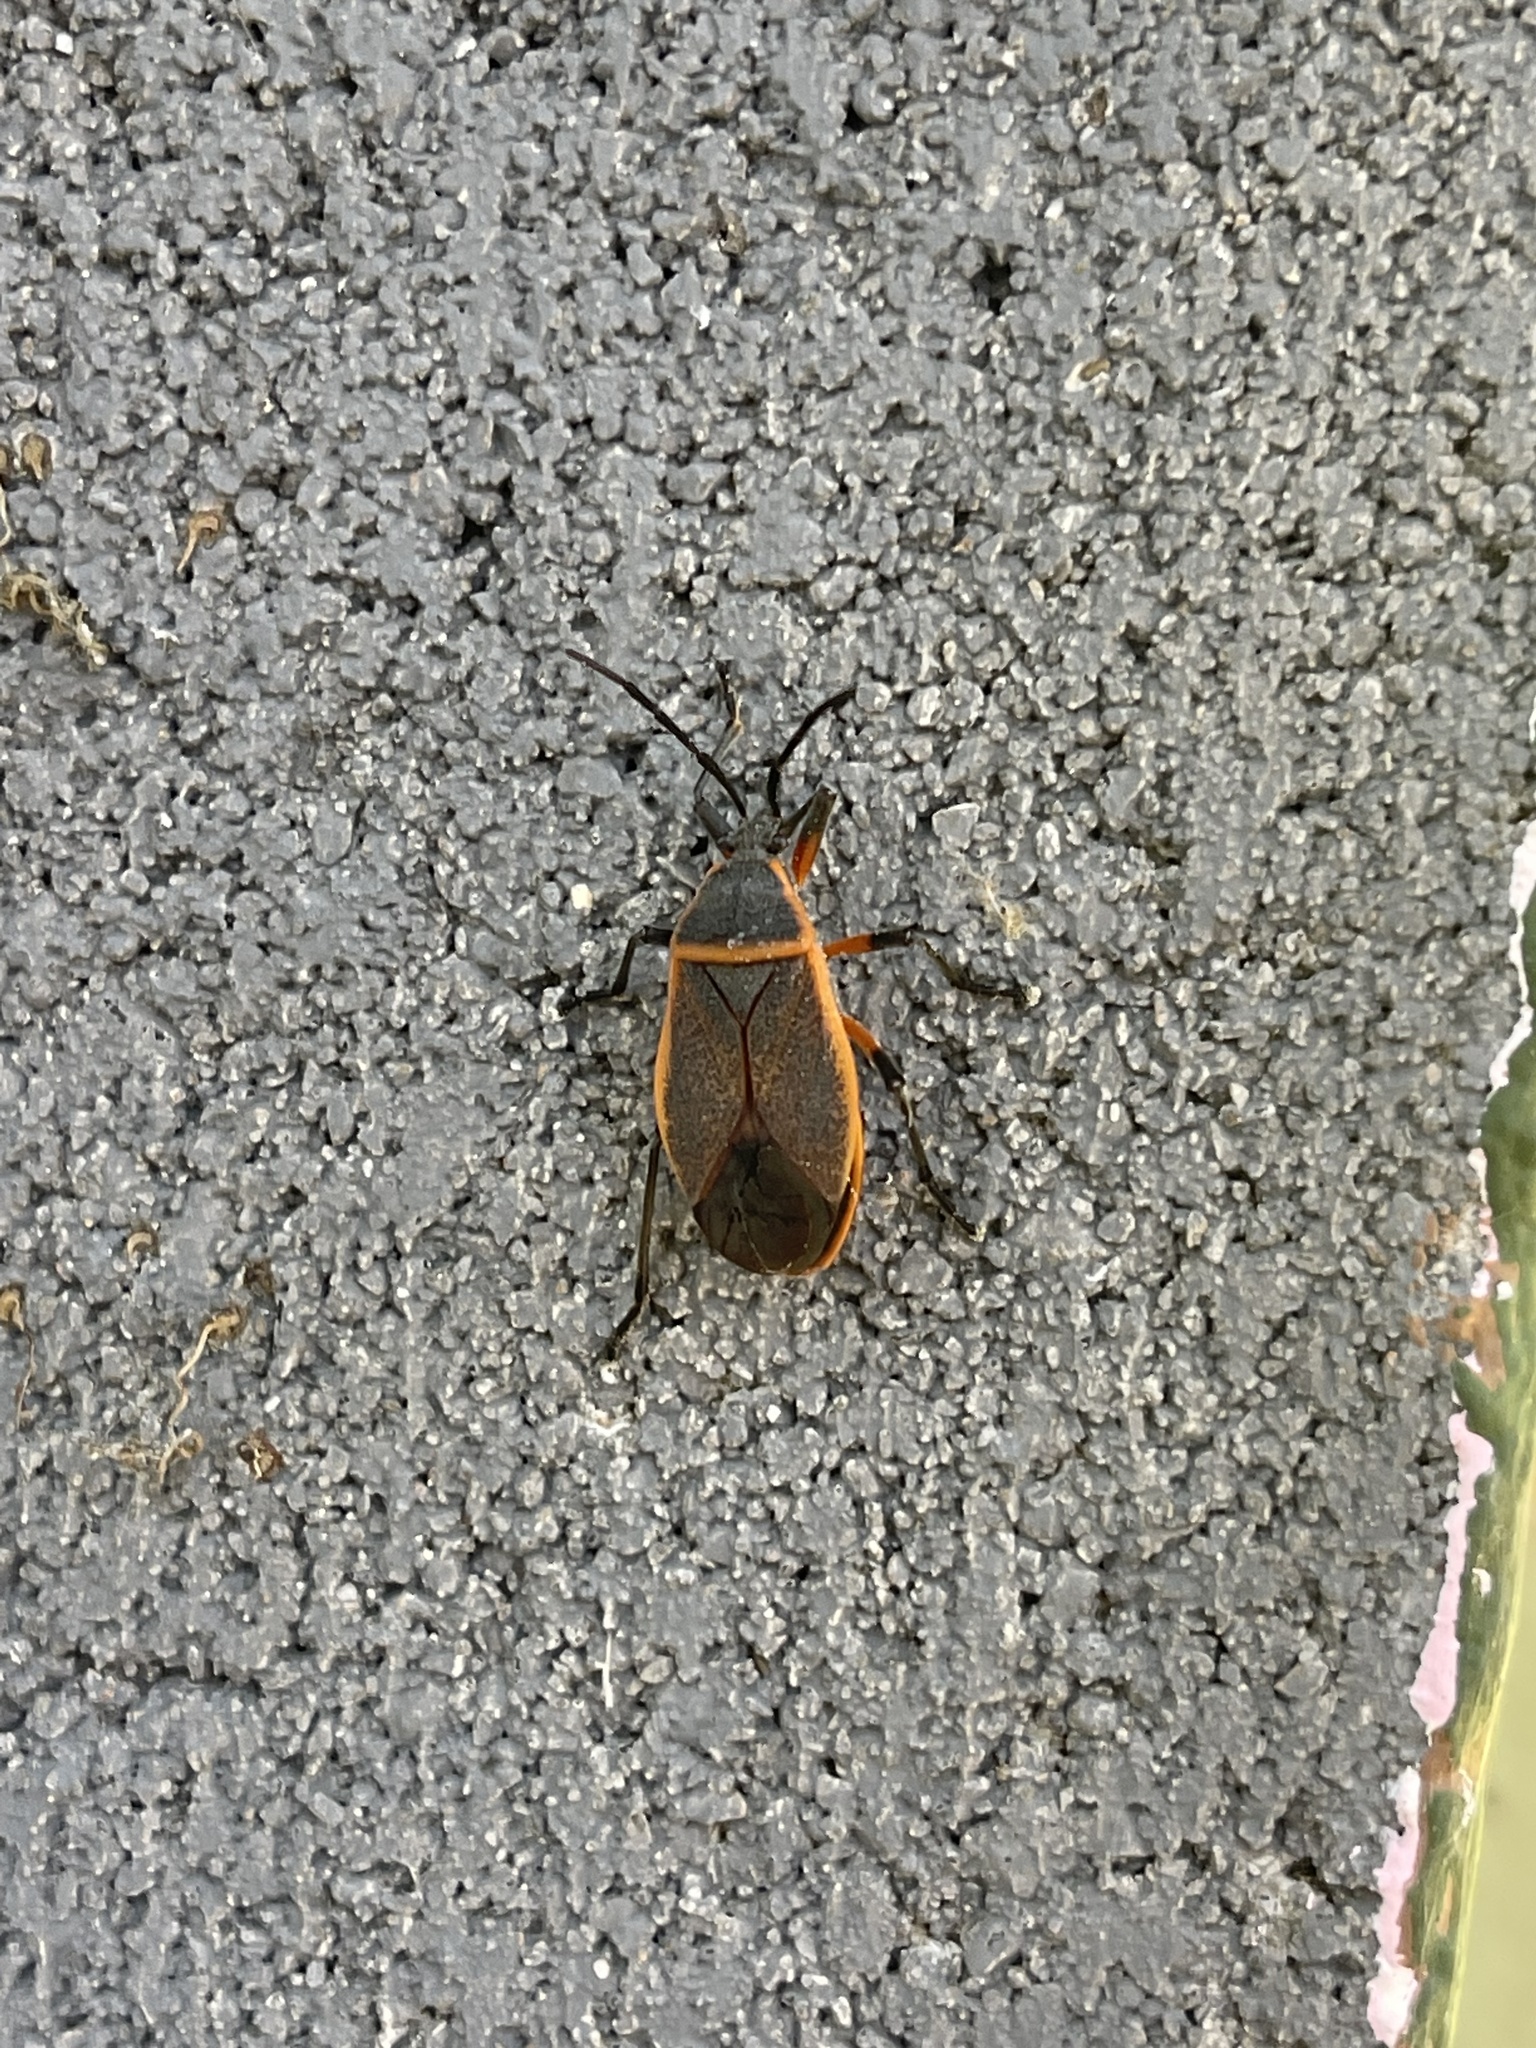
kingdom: Animalia
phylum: Arthropoda
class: Insecta
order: Hemiptera
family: Largidae
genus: Largus
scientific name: Largus succinctus
